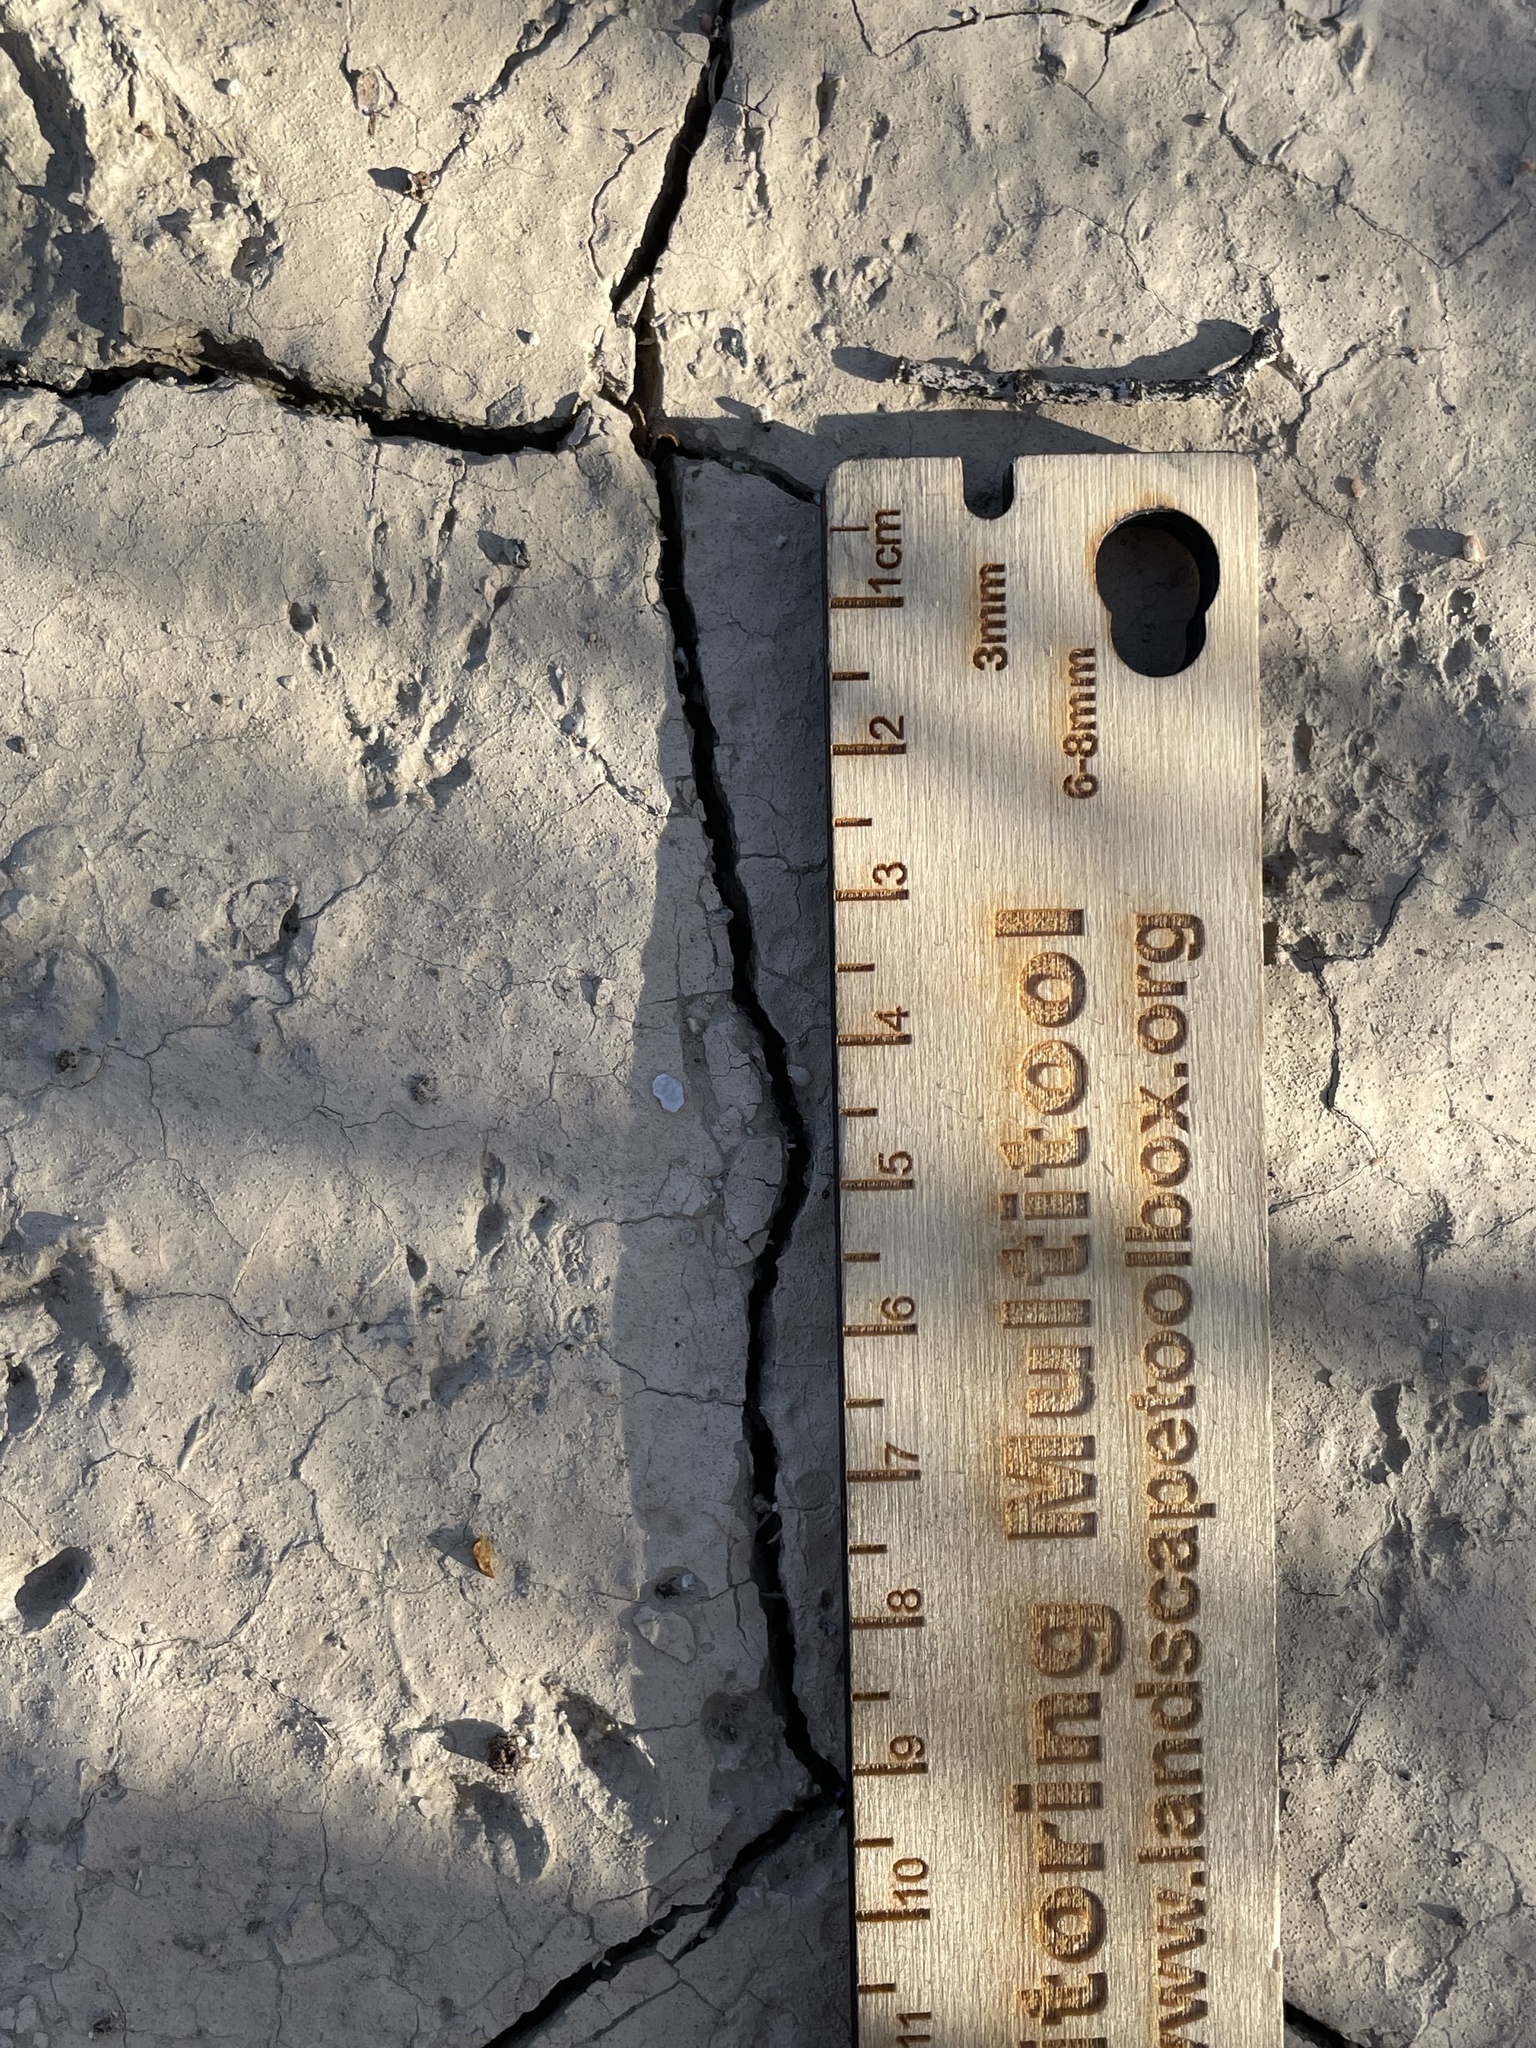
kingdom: Animalia
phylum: Chordata
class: Mammalia
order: Rodentia
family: Sciuridae
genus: Ammospermophilus
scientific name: Ammospermophilus leucurus
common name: White-tailed antelope squirrel
